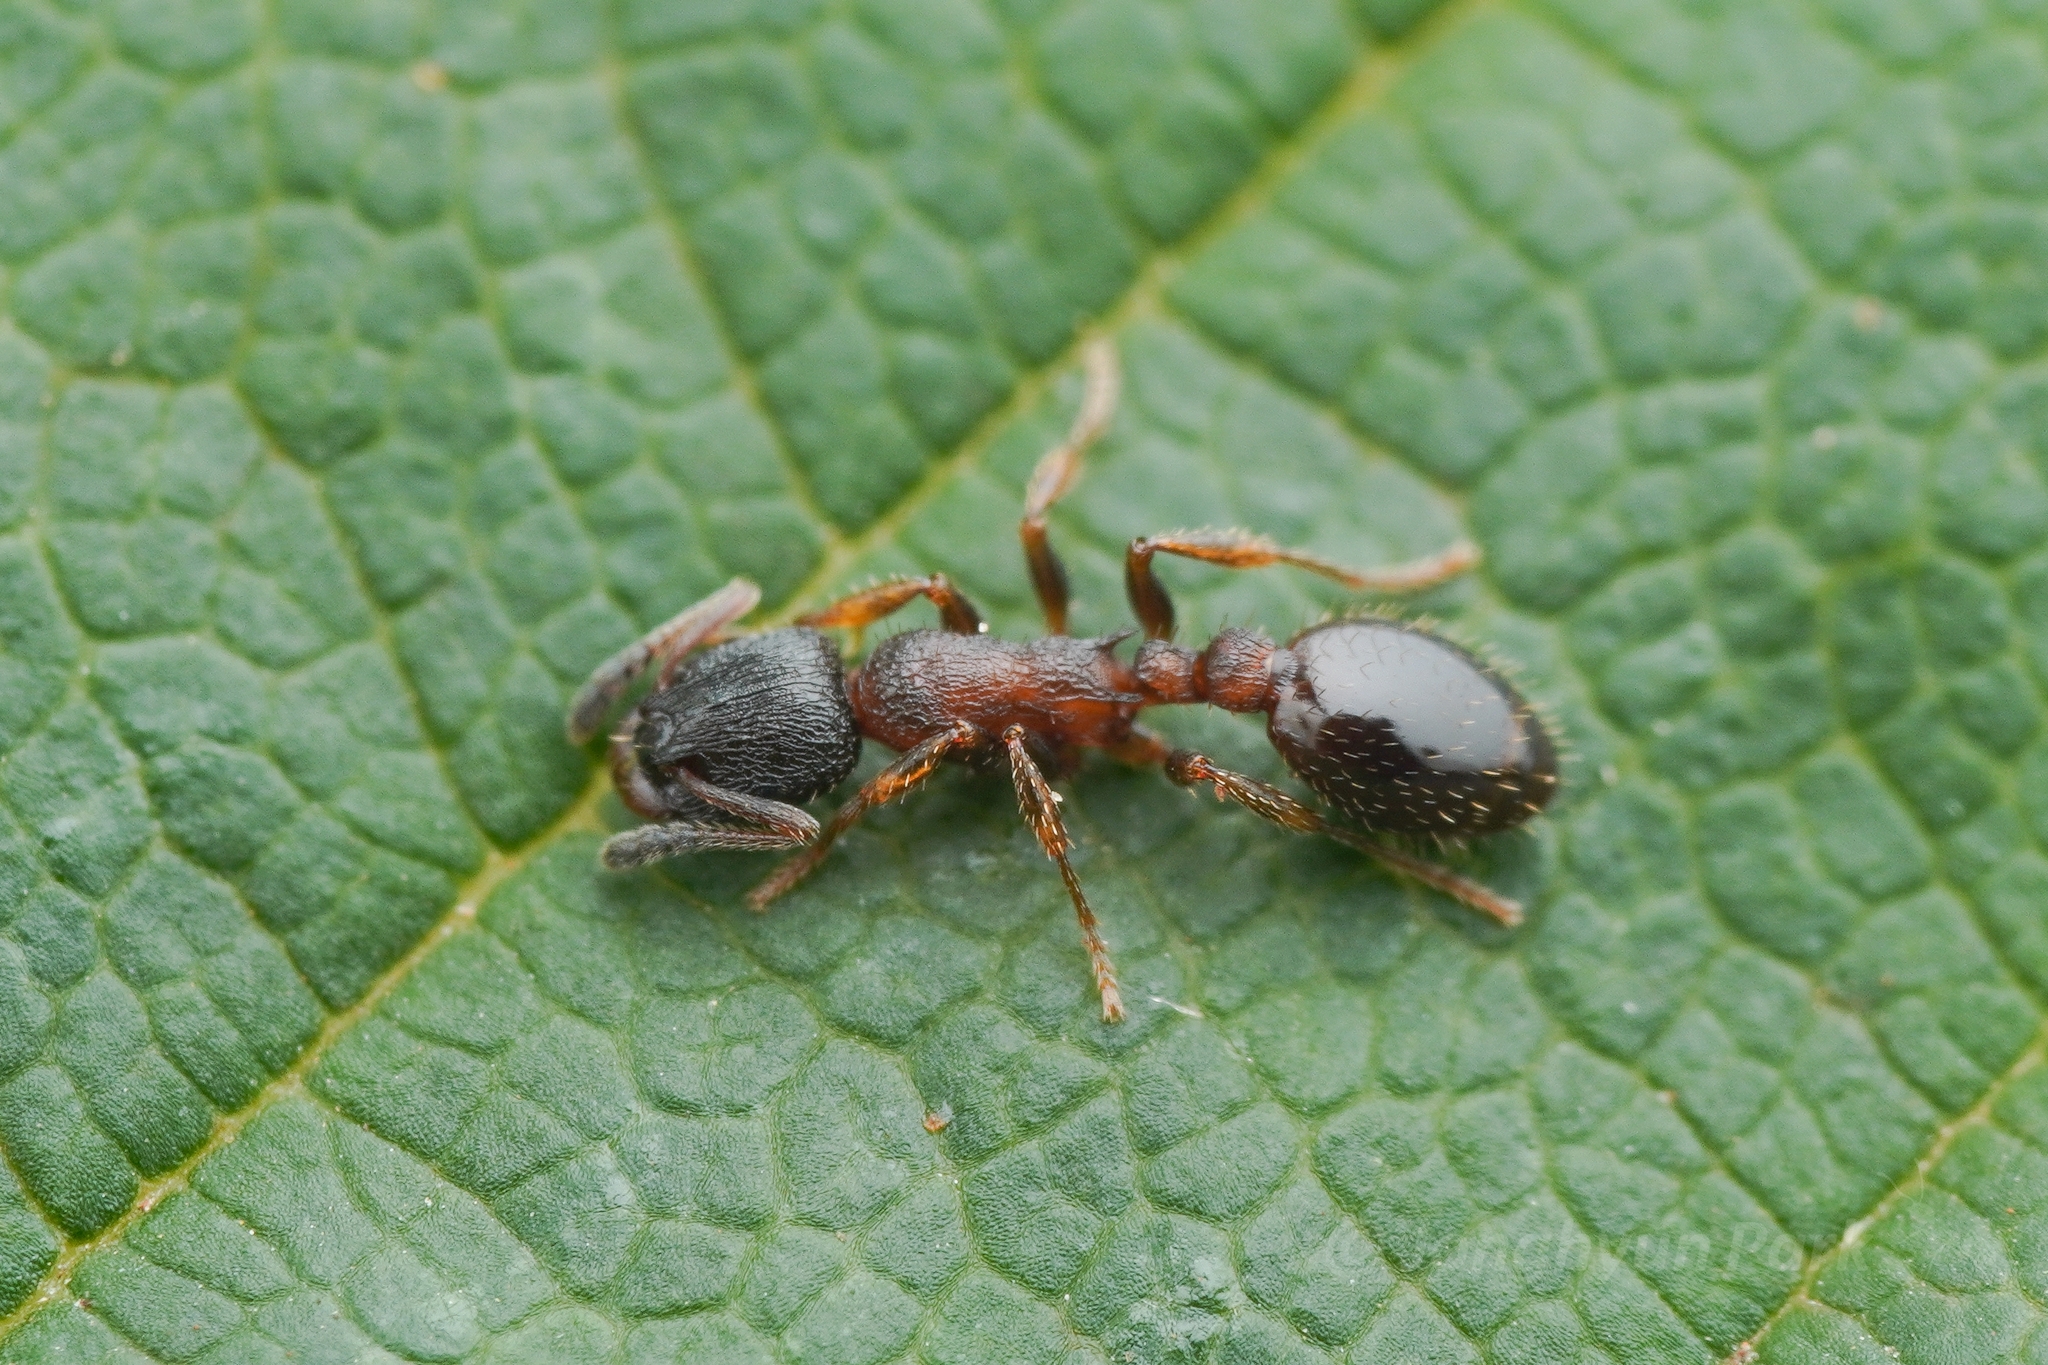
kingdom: Animalia
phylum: Arthropoda
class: Insecta
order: Hymenoptera
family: Formicidae
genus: Leptothorax
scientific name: Leptothorax acervorum
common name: Slender ant
